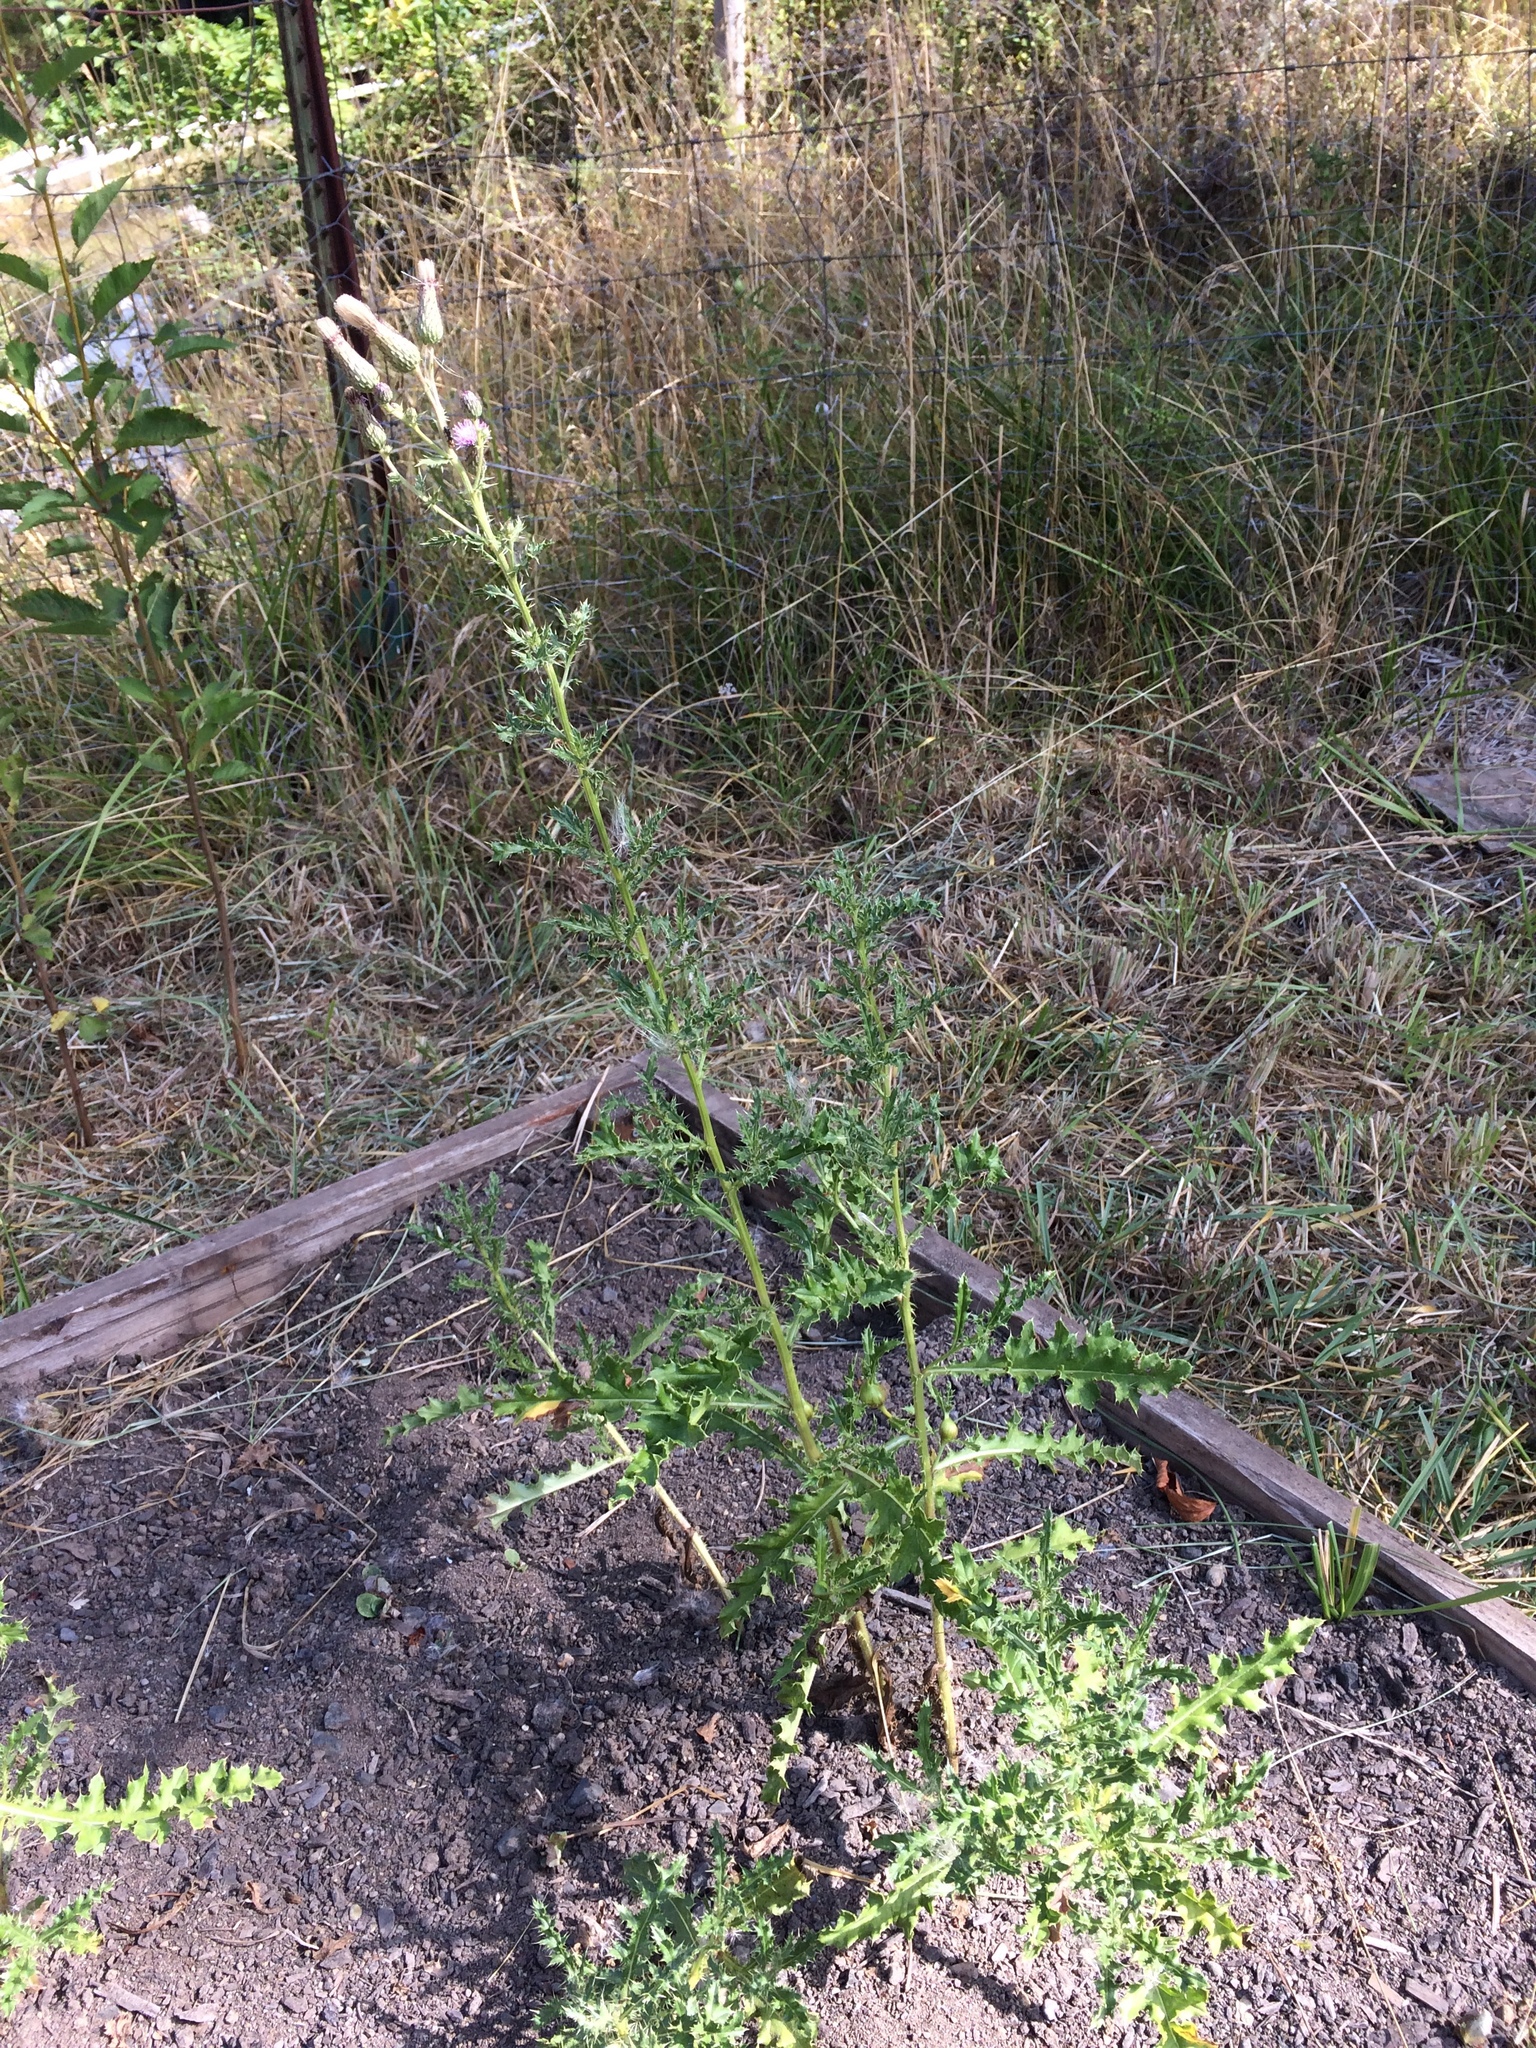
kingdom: Plantae
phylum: Tracheophyta
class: Magnoliopsida
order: Asterales
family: Asteraceae
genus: Cirsium
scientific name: Cirsium arvense
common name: Creeping thistle
